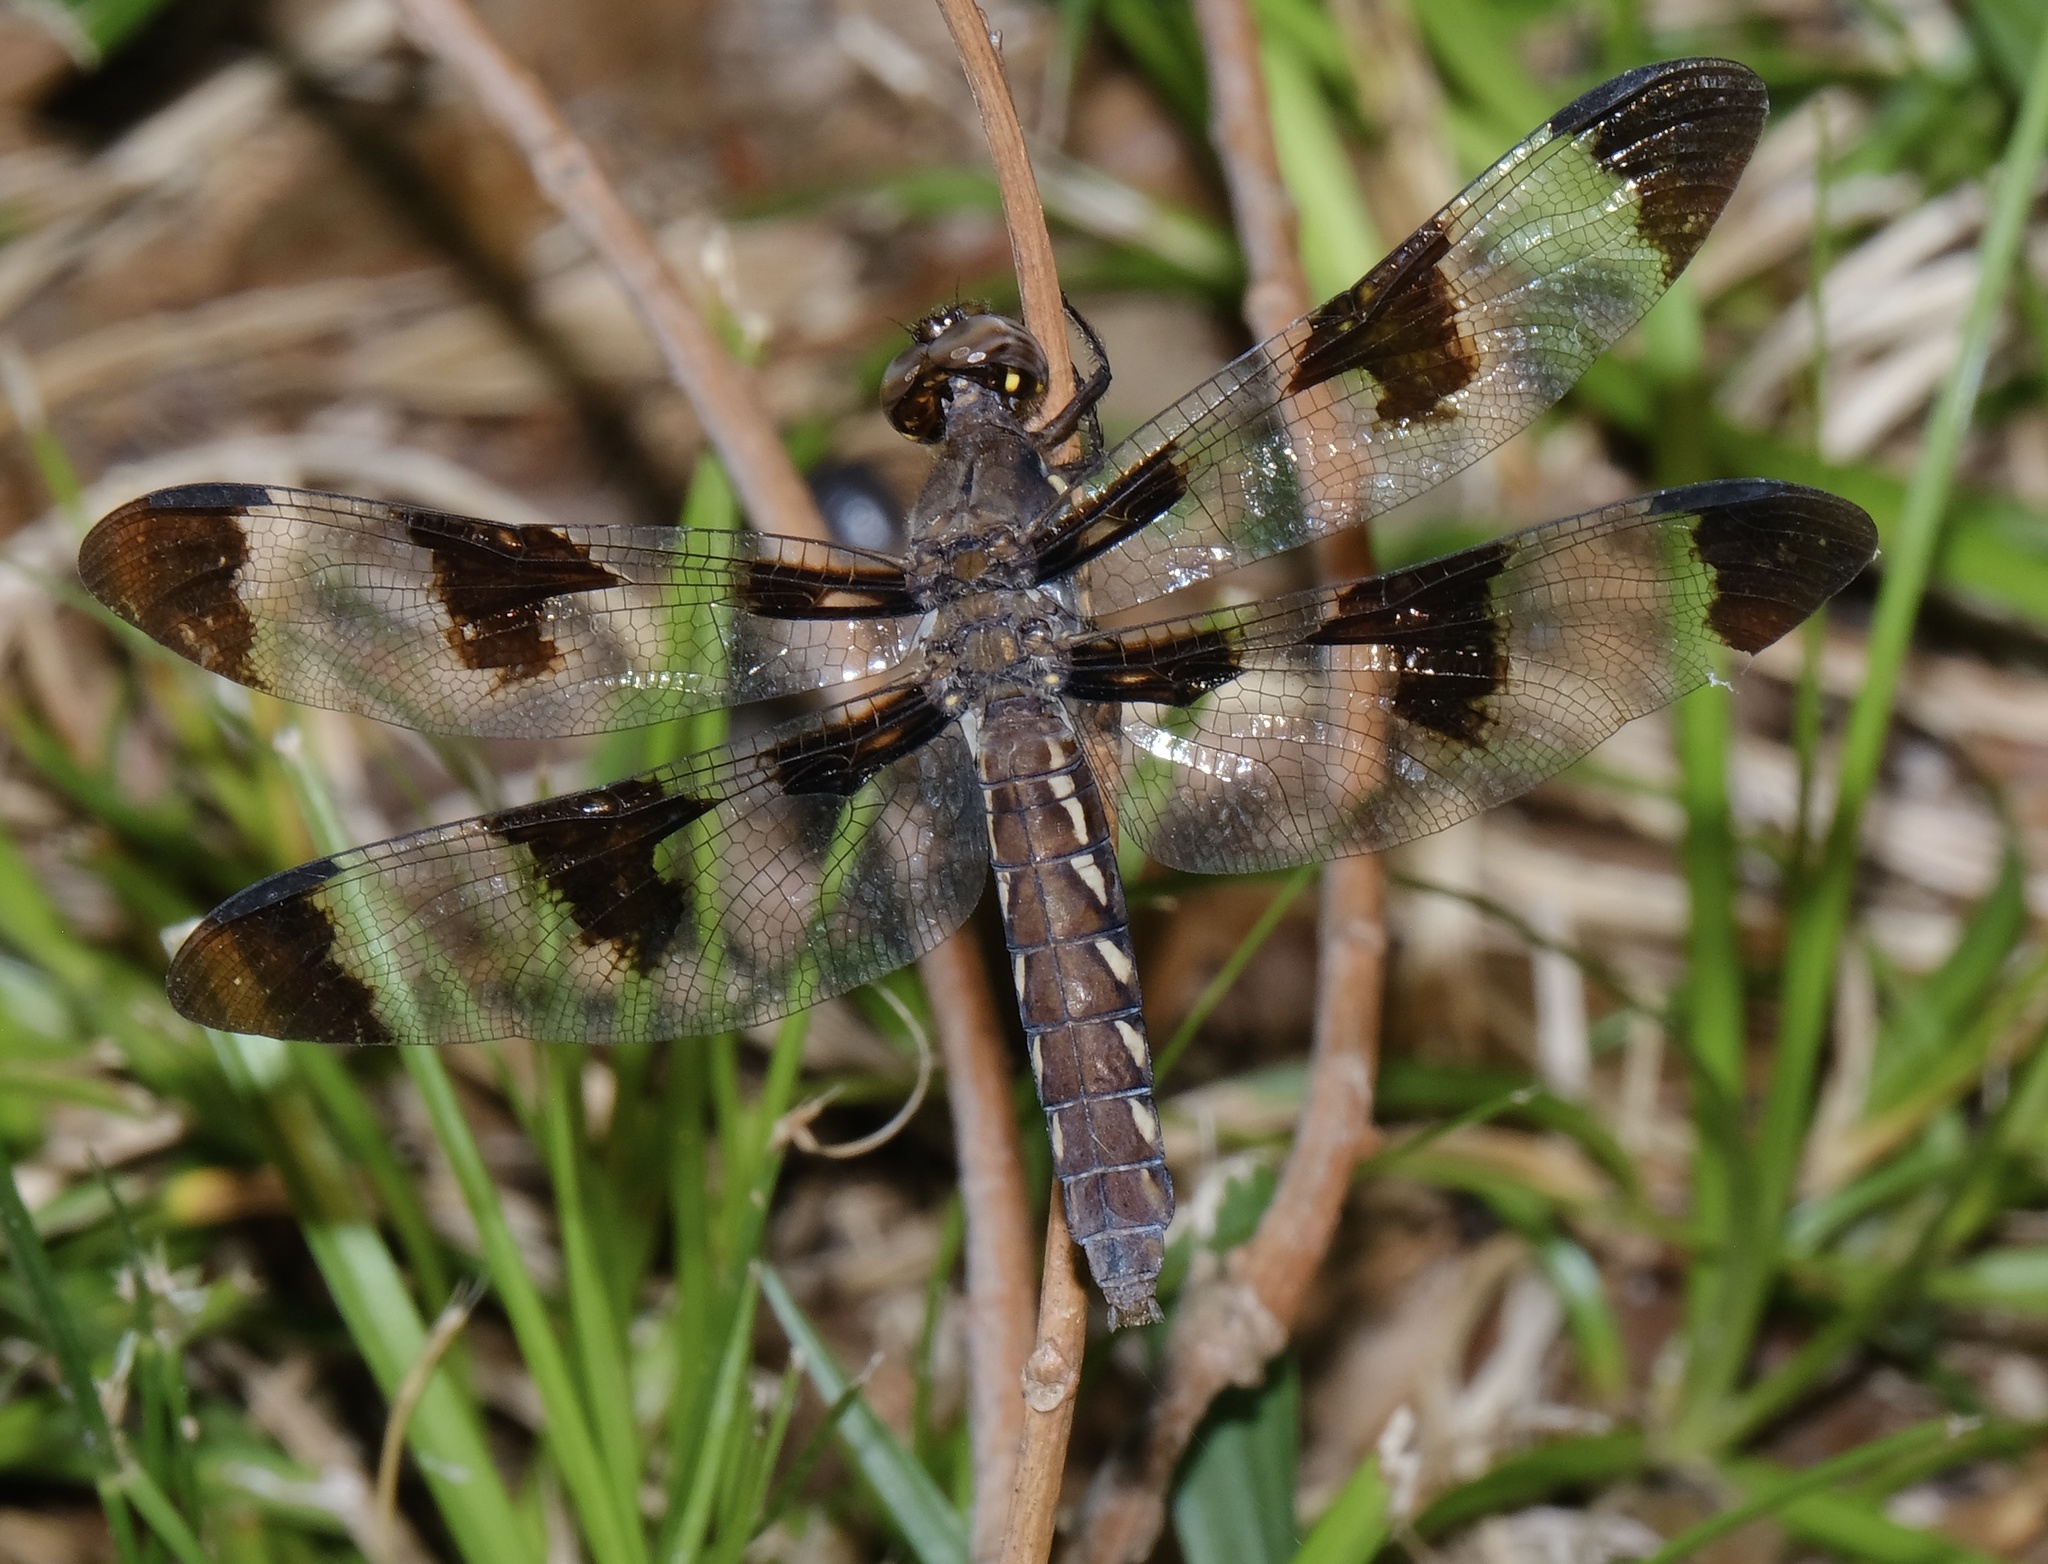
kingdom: Animalia
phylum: Arthropoda
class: Insecta
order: Odonata
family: Libellulidae
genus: Plathemis
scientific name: Plathemis lydia
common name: Common whitetail
